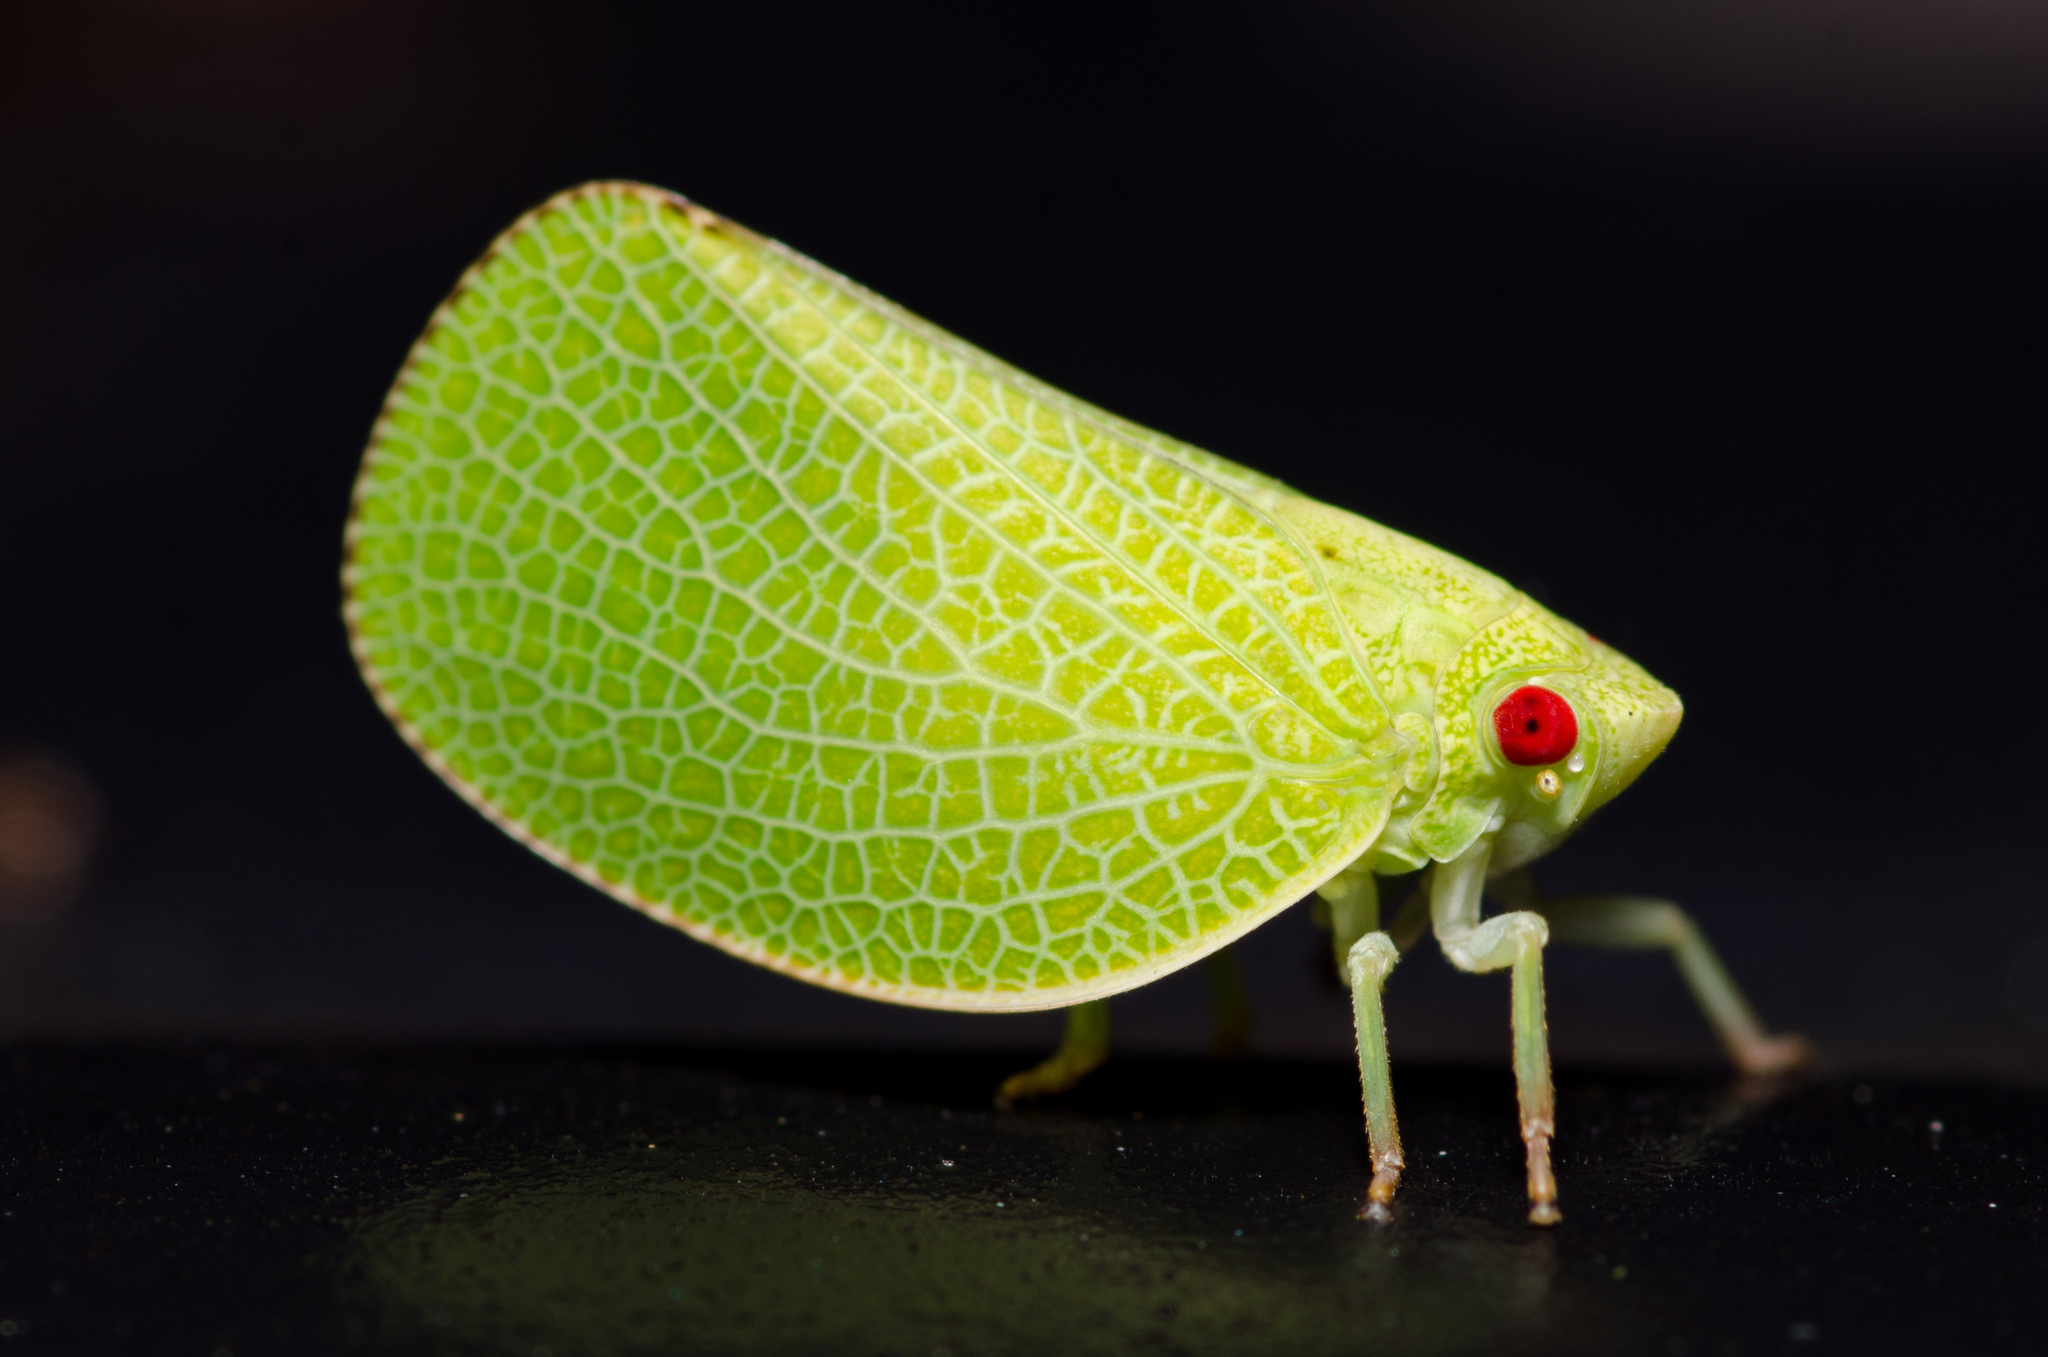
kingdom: Animalia
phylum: Arthropoda
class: Insecta
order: Hemiptera
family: Acanaloniidae
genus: Acanalonia
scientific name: Acanalonia conica
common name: Green cone-headed planthopper
